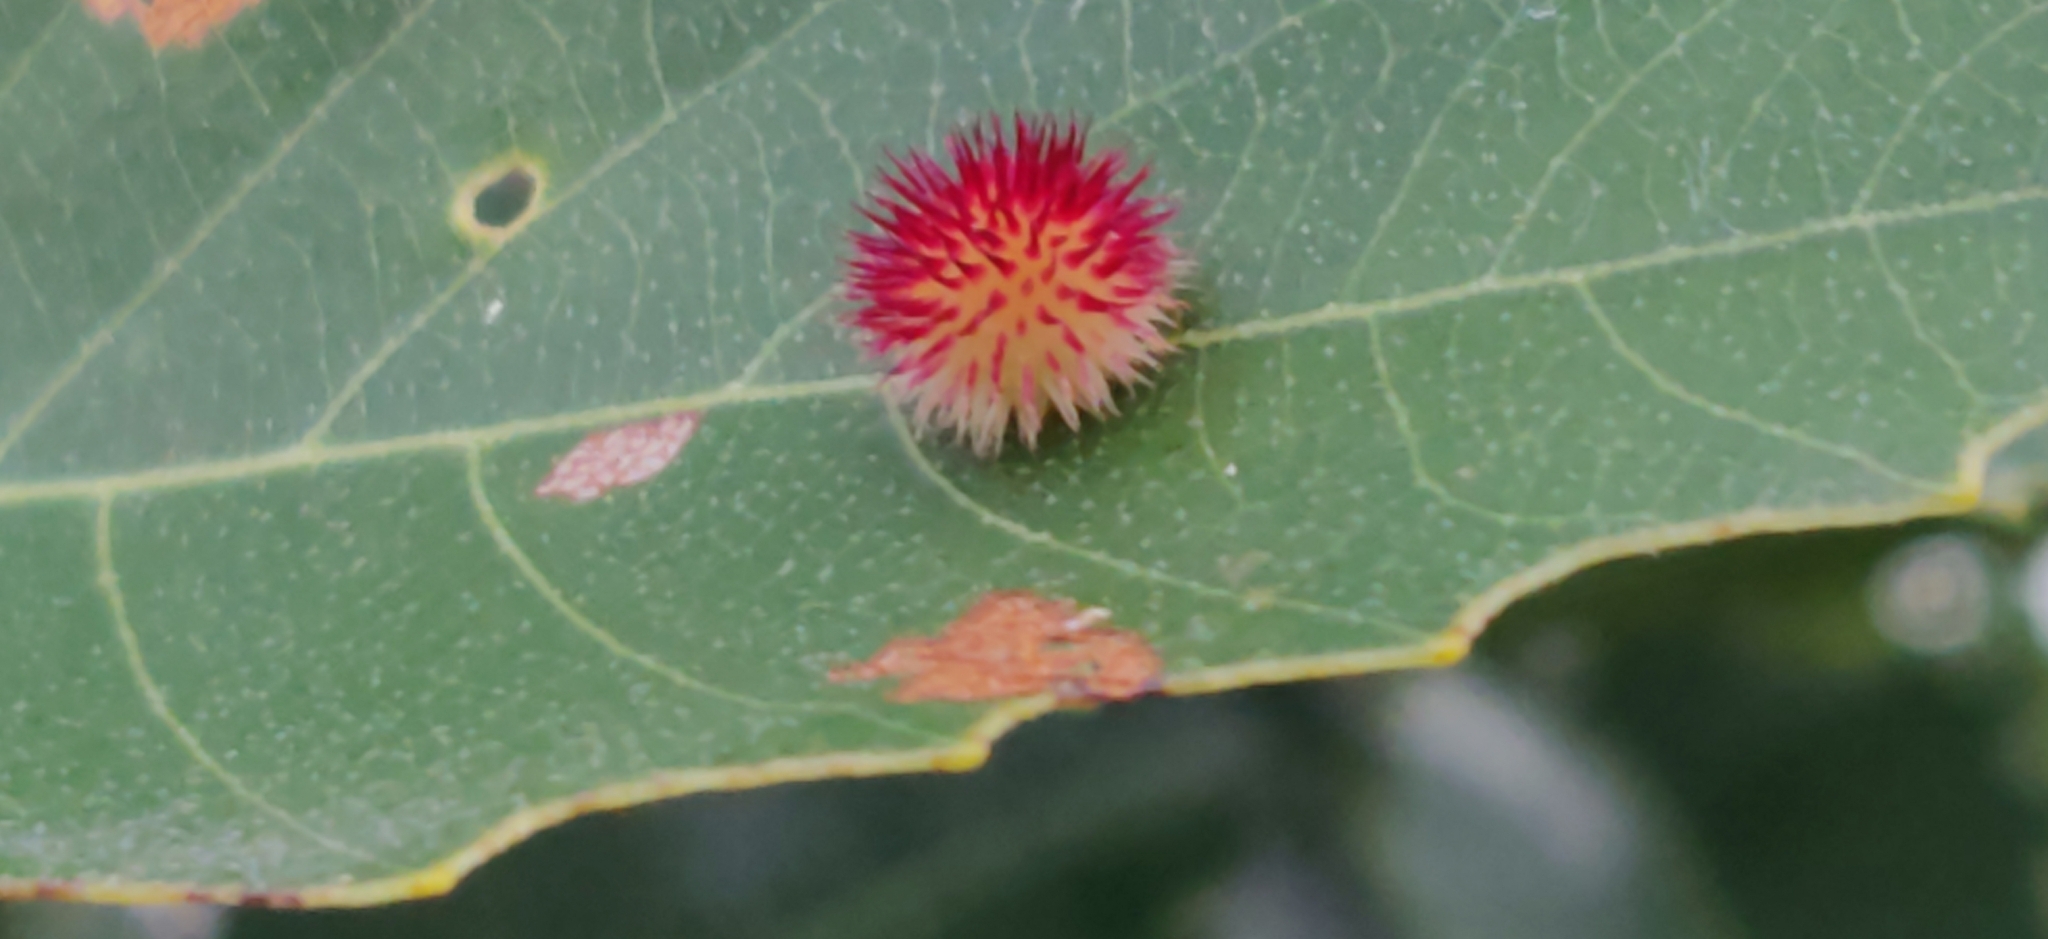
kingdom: Animalia
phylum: Arthropoda
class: Insecta
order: Hymenoptera
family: Cynipidae
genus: Acraspis
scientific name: Acraspis
